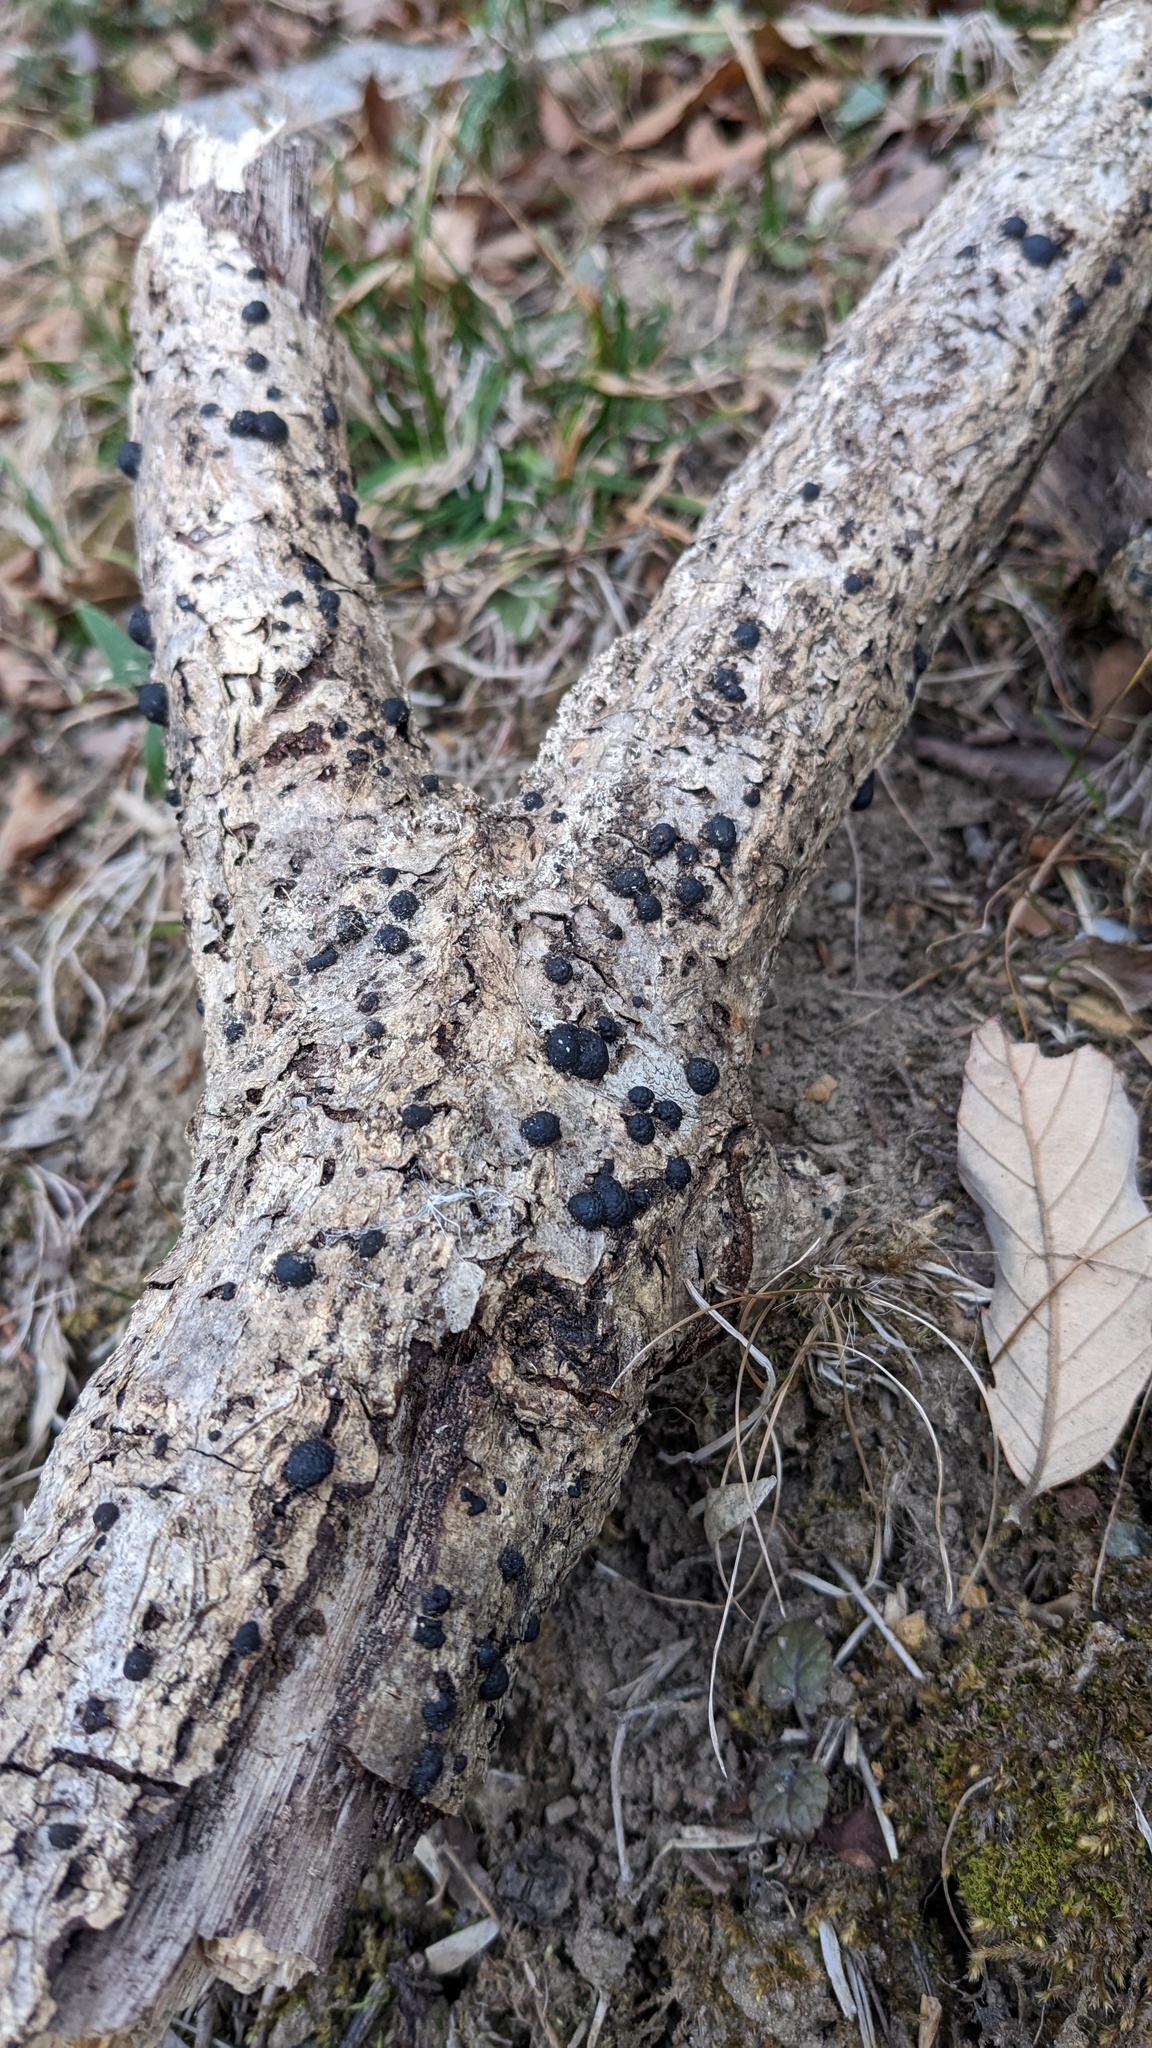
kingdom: Fungi
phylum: Ascomycota
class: Sordariomycetes
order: Xylariales
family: Hypoxylaceae
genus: Annulohypoxylon
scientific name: Annulohypoxylon truncatum
